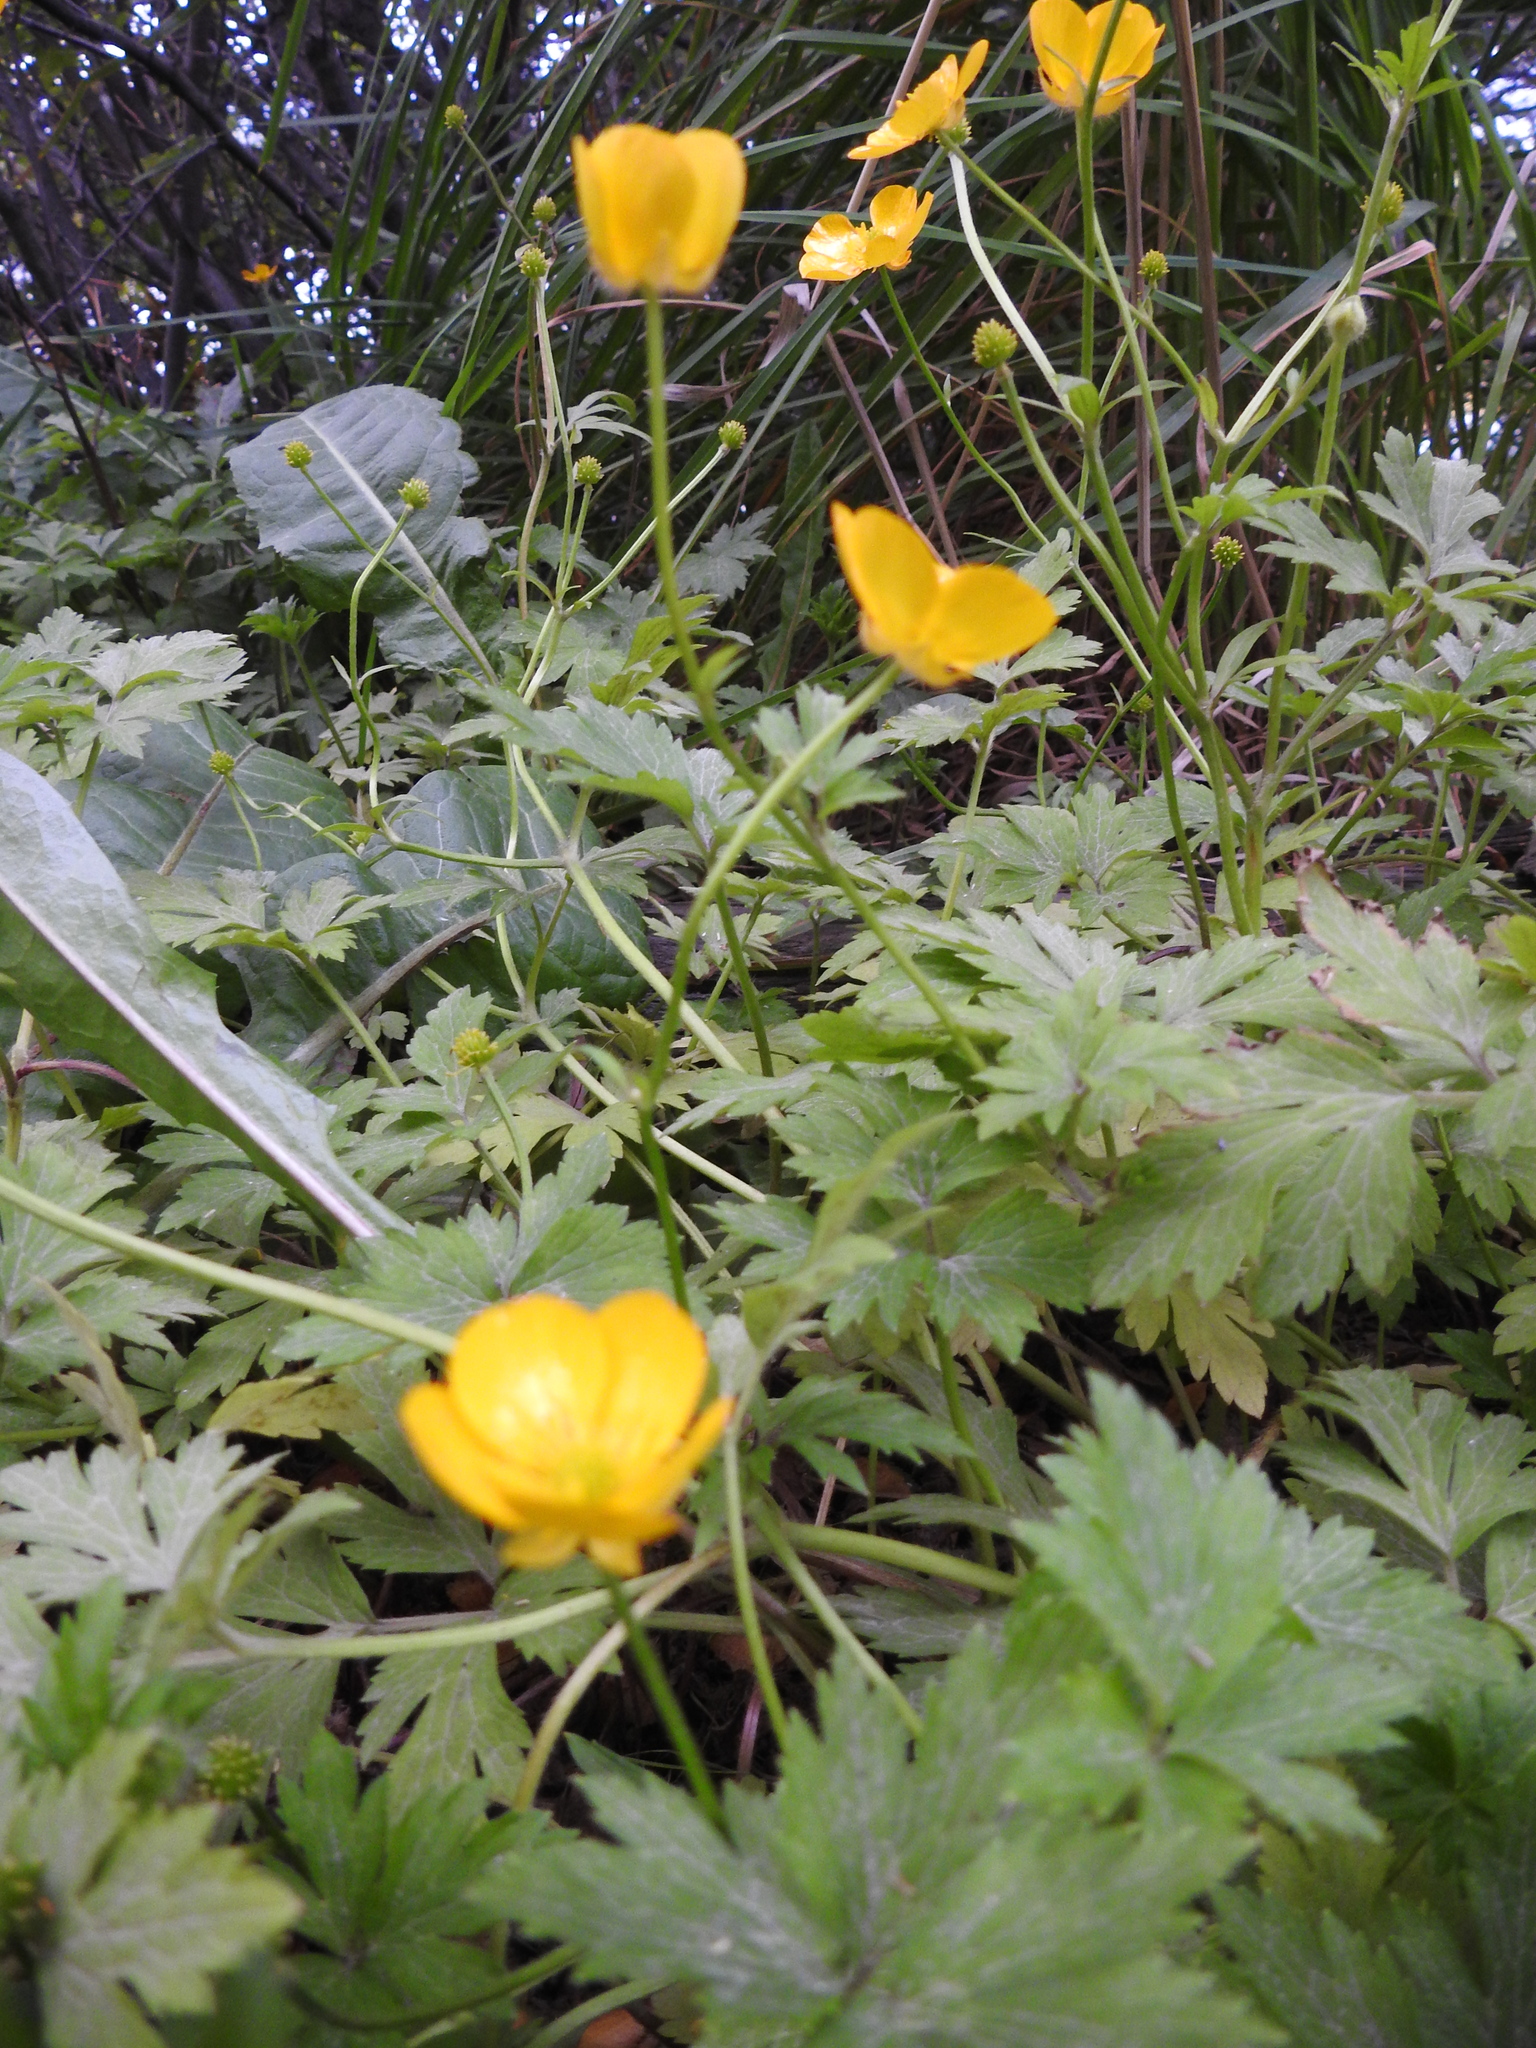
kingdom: Plantae
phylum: Tracheophyta
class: Magnoliopsida
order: Ranunculales
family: Ranunculaceae
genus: Ranunculus
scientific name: Ranunculus repens
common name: Creeping buttercup
